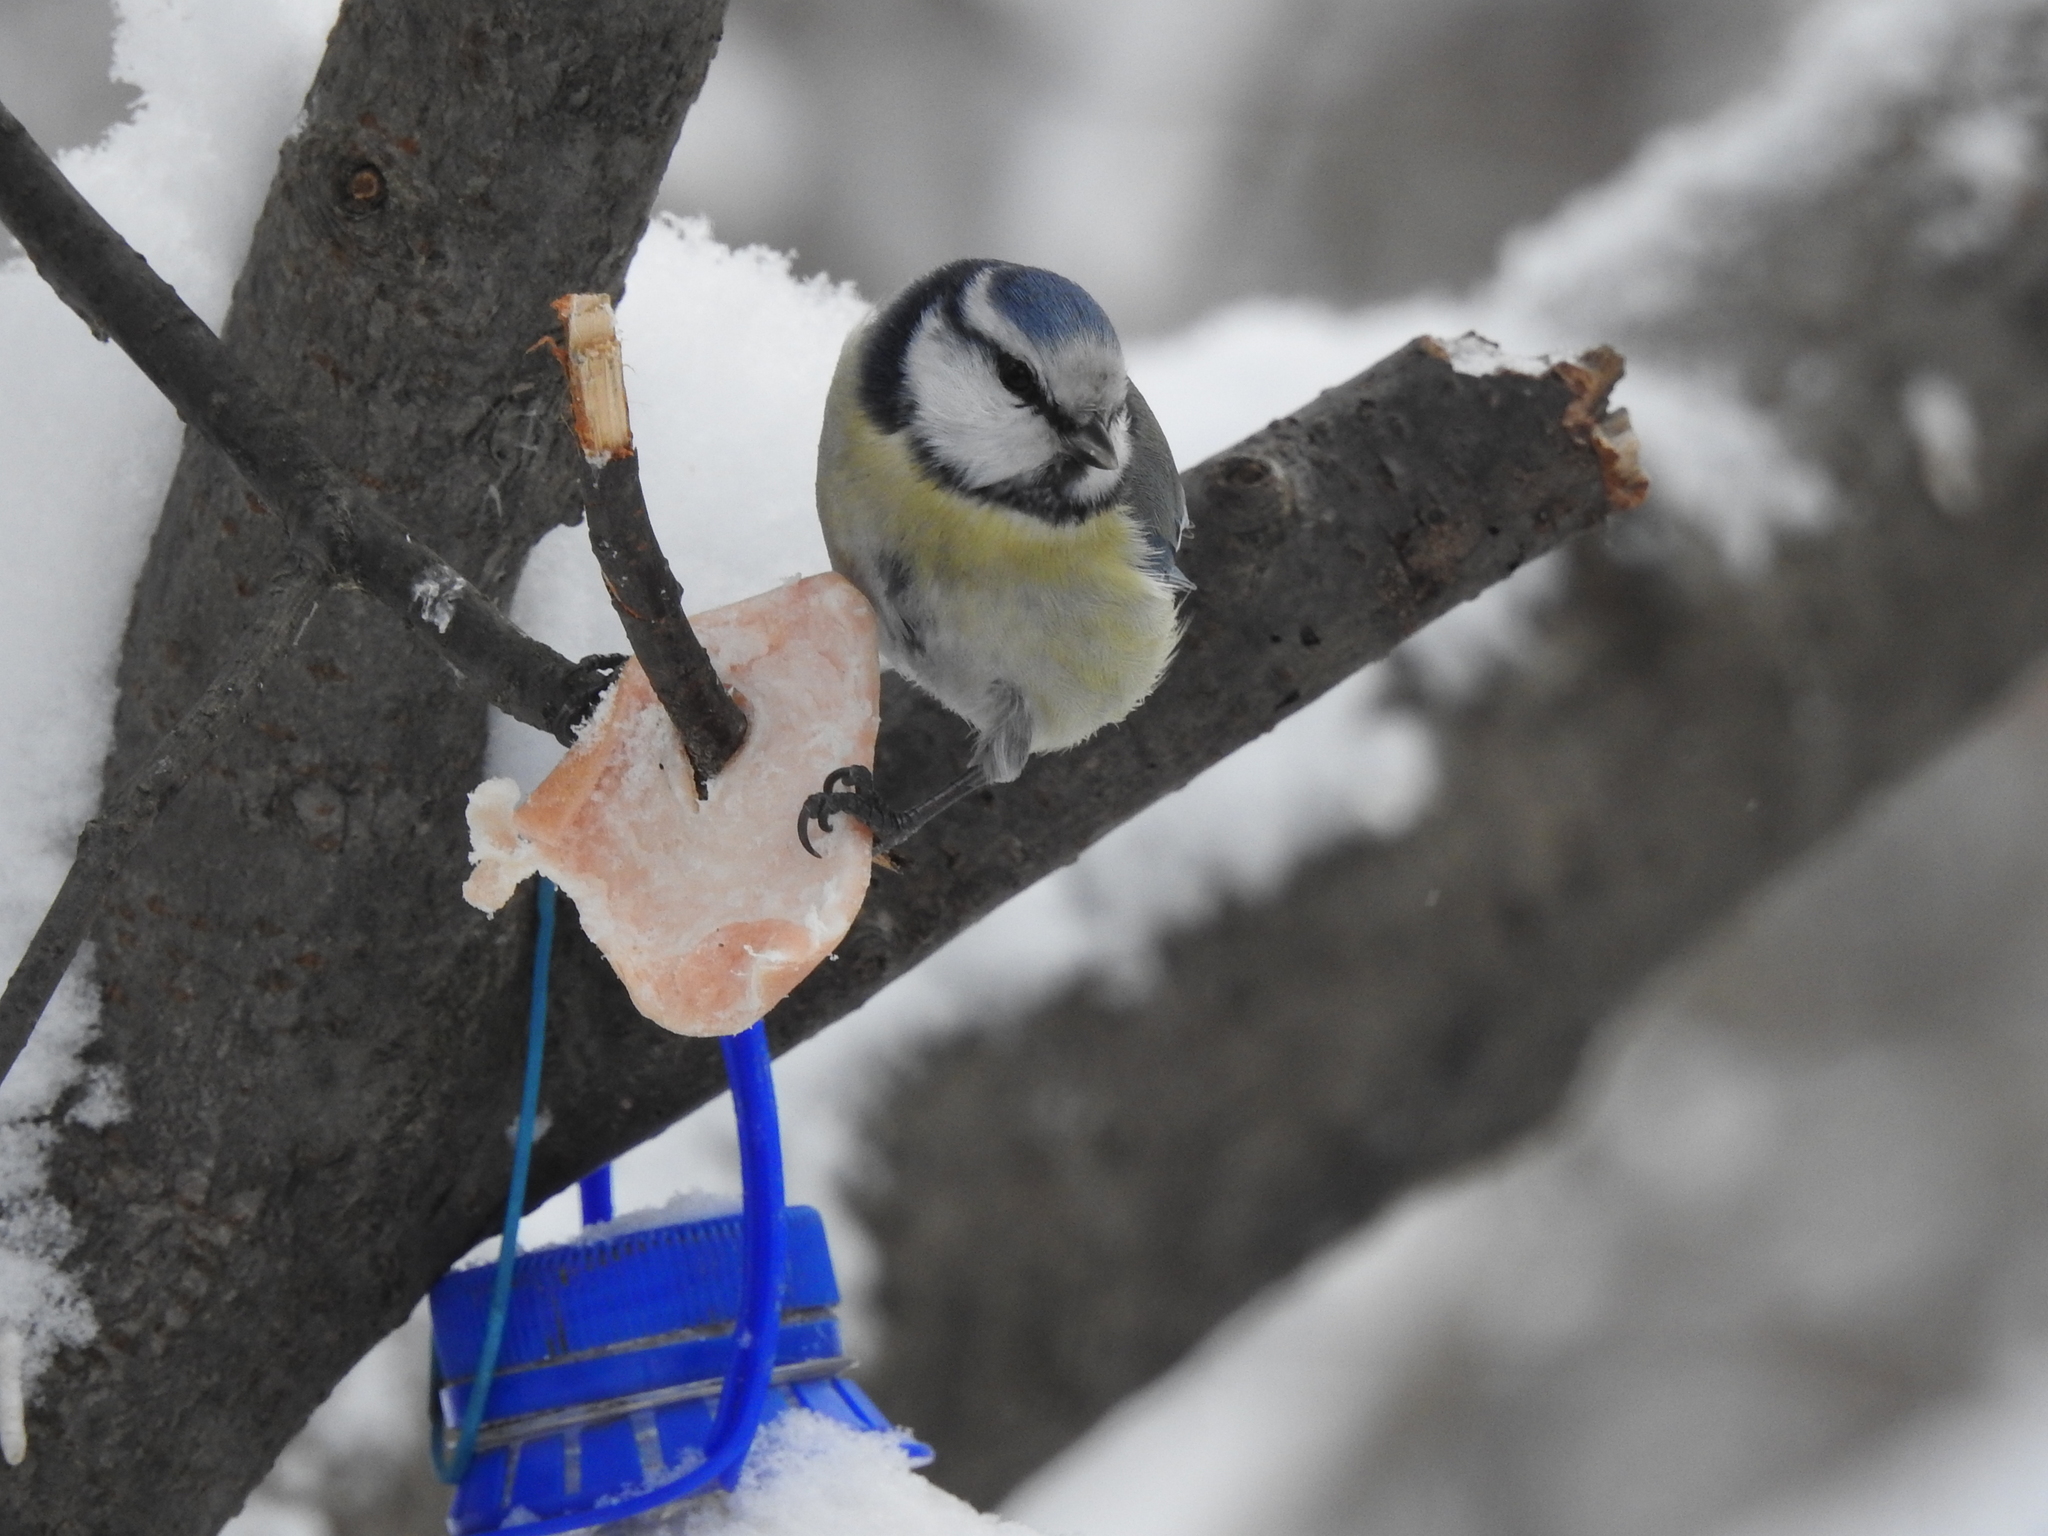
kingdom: Animalia
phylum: Chordata
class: Aves
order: Passeriformes
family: Paridae
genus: Cyanistes
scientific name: Cyanistes caeruleus
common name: Eurasian blue tit
